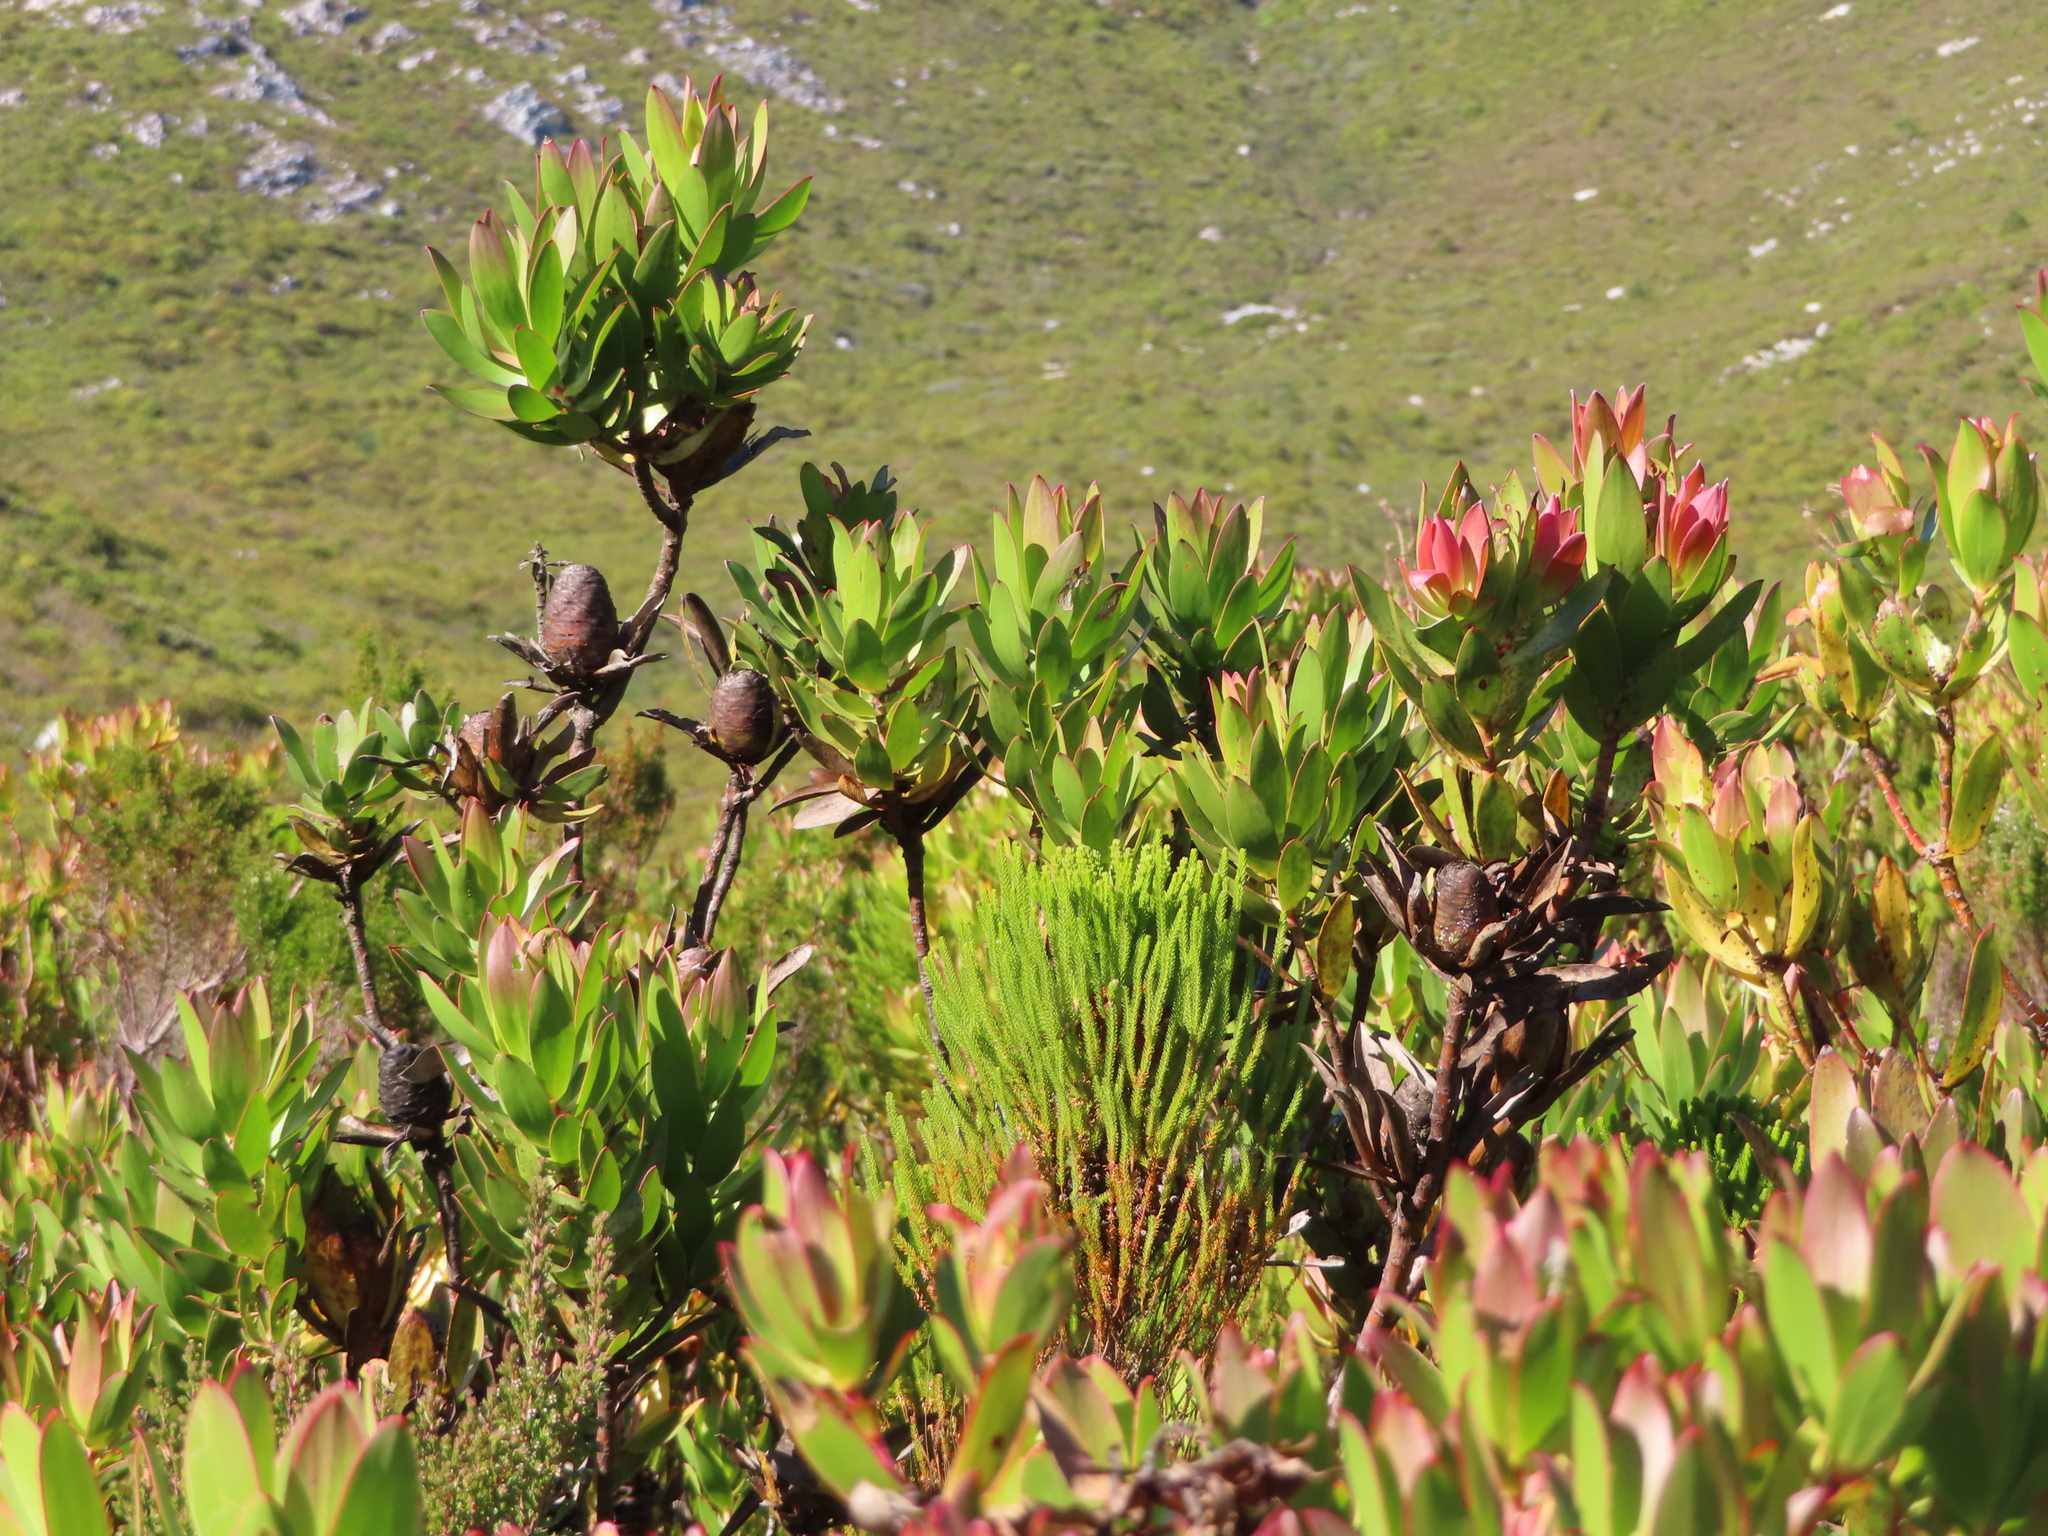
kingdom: Plantae
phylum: Tracheophyta
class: Magnoliopsida
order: Proteales
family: Proteaceae
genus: Leucadendron
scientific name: Leucadendron gandogeri
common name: Broad-leaf conebush
